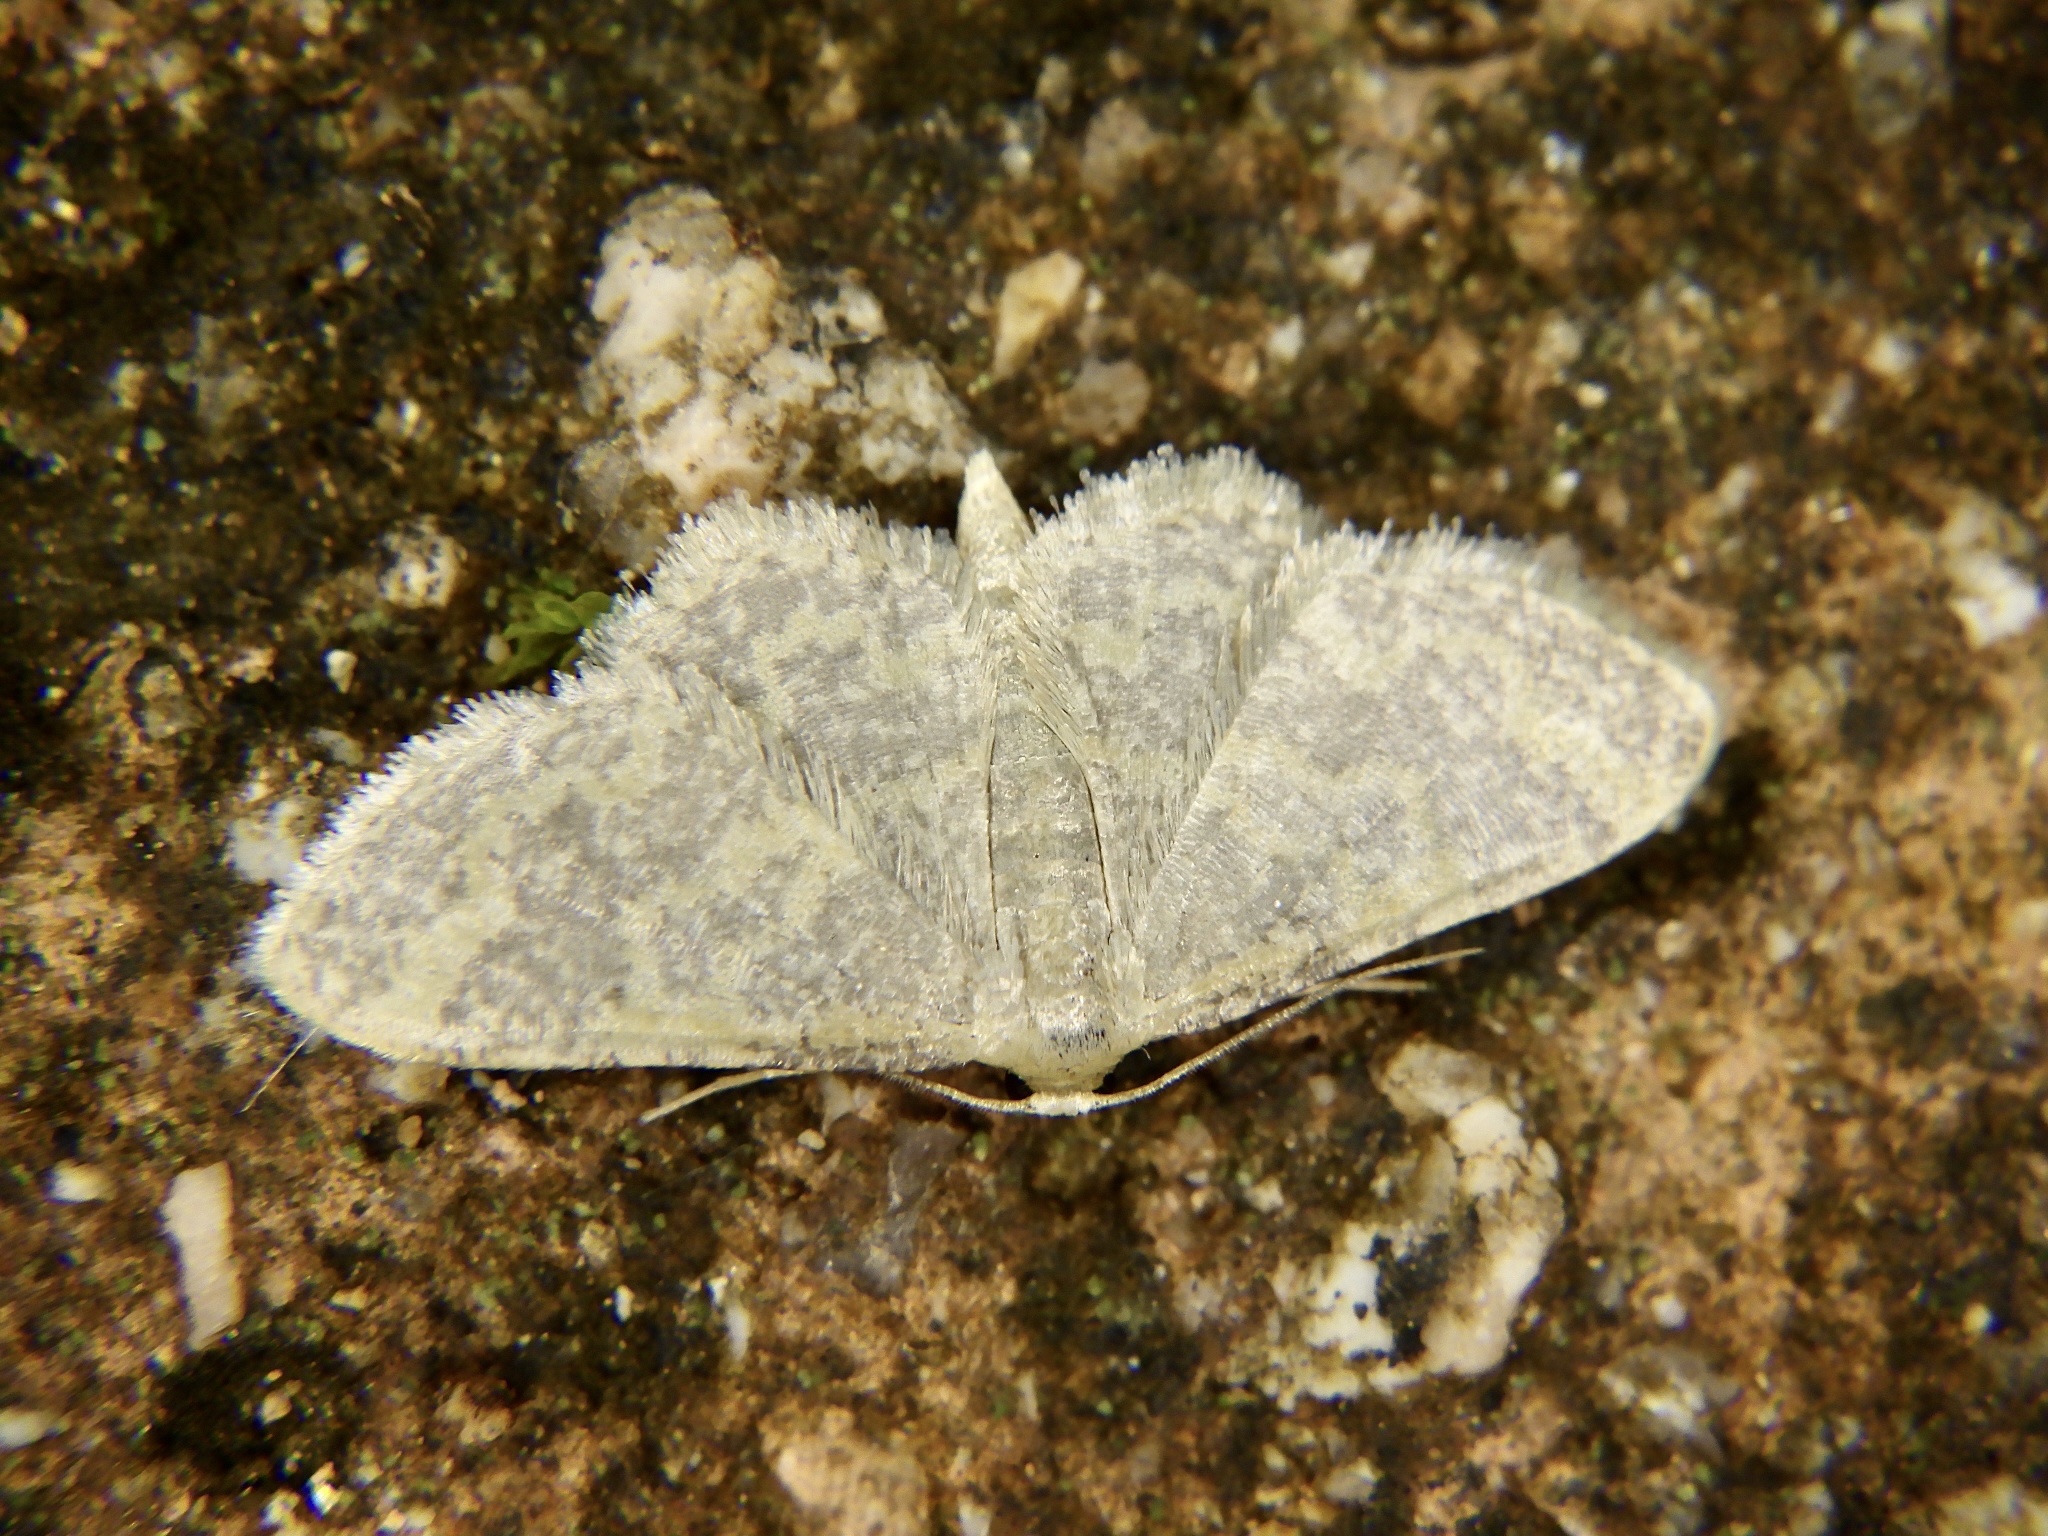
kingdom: Animalia
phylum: Arthropoda
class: Insecta
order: Lepidoptera
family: Geometridae
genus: Idaea
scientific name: Idaea auricruda
